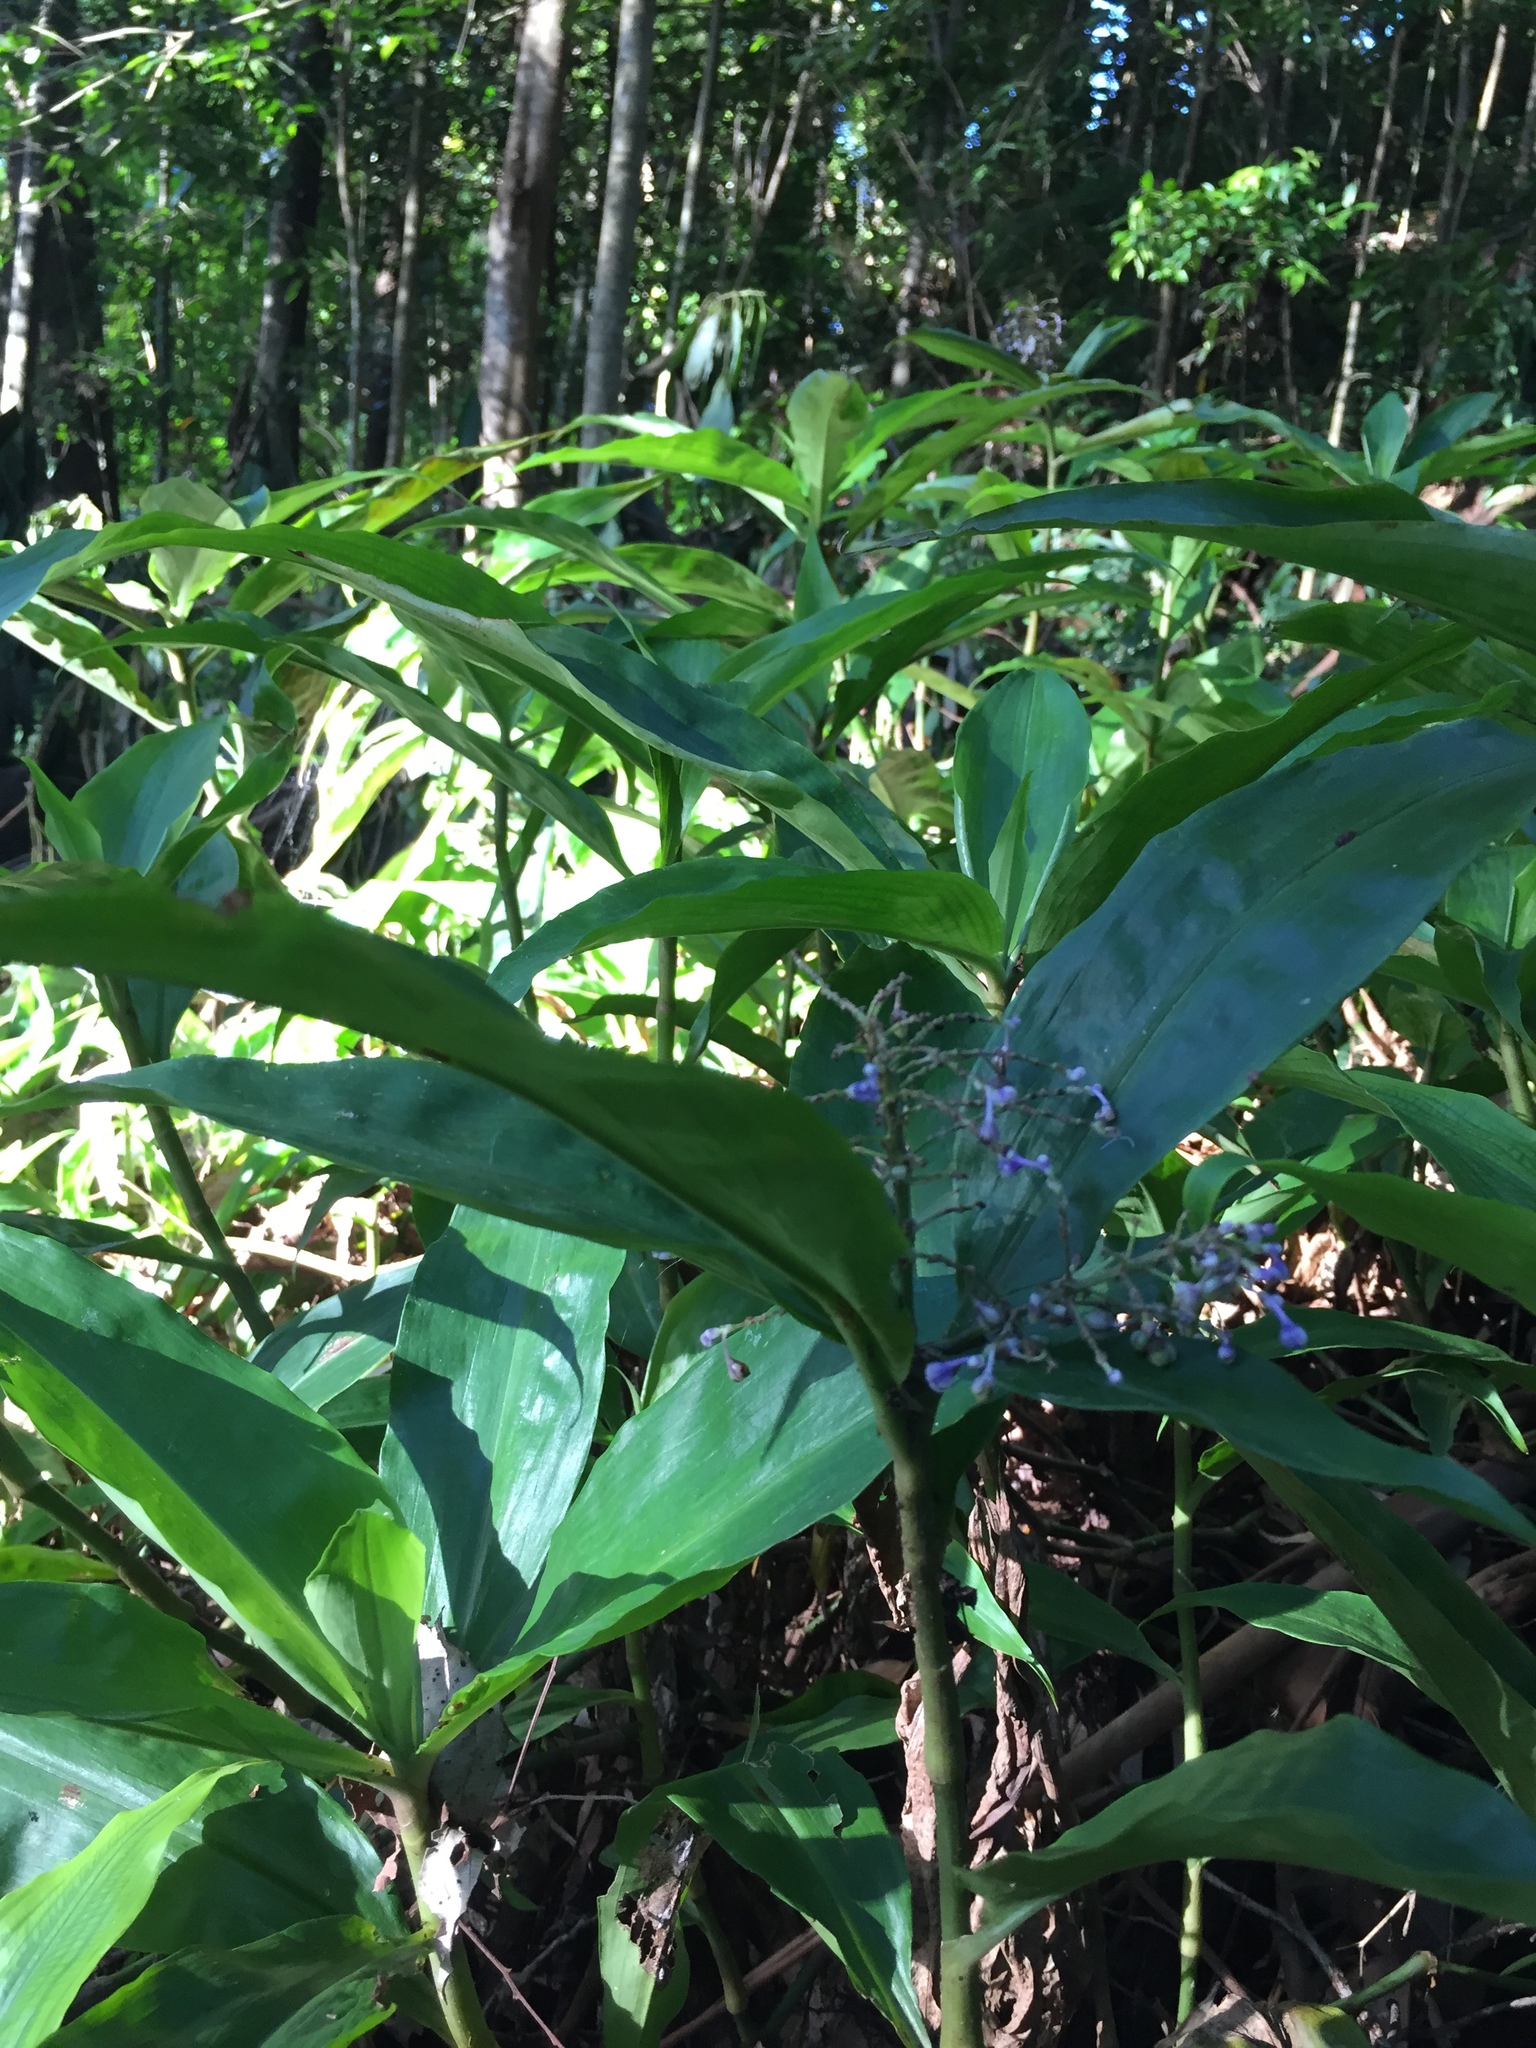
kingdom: Plantae
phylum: Tracheophyta
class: Liliopsida
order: Commelinales
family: Commelinaceae
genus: Pollia
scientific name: Pollia macrophylla
